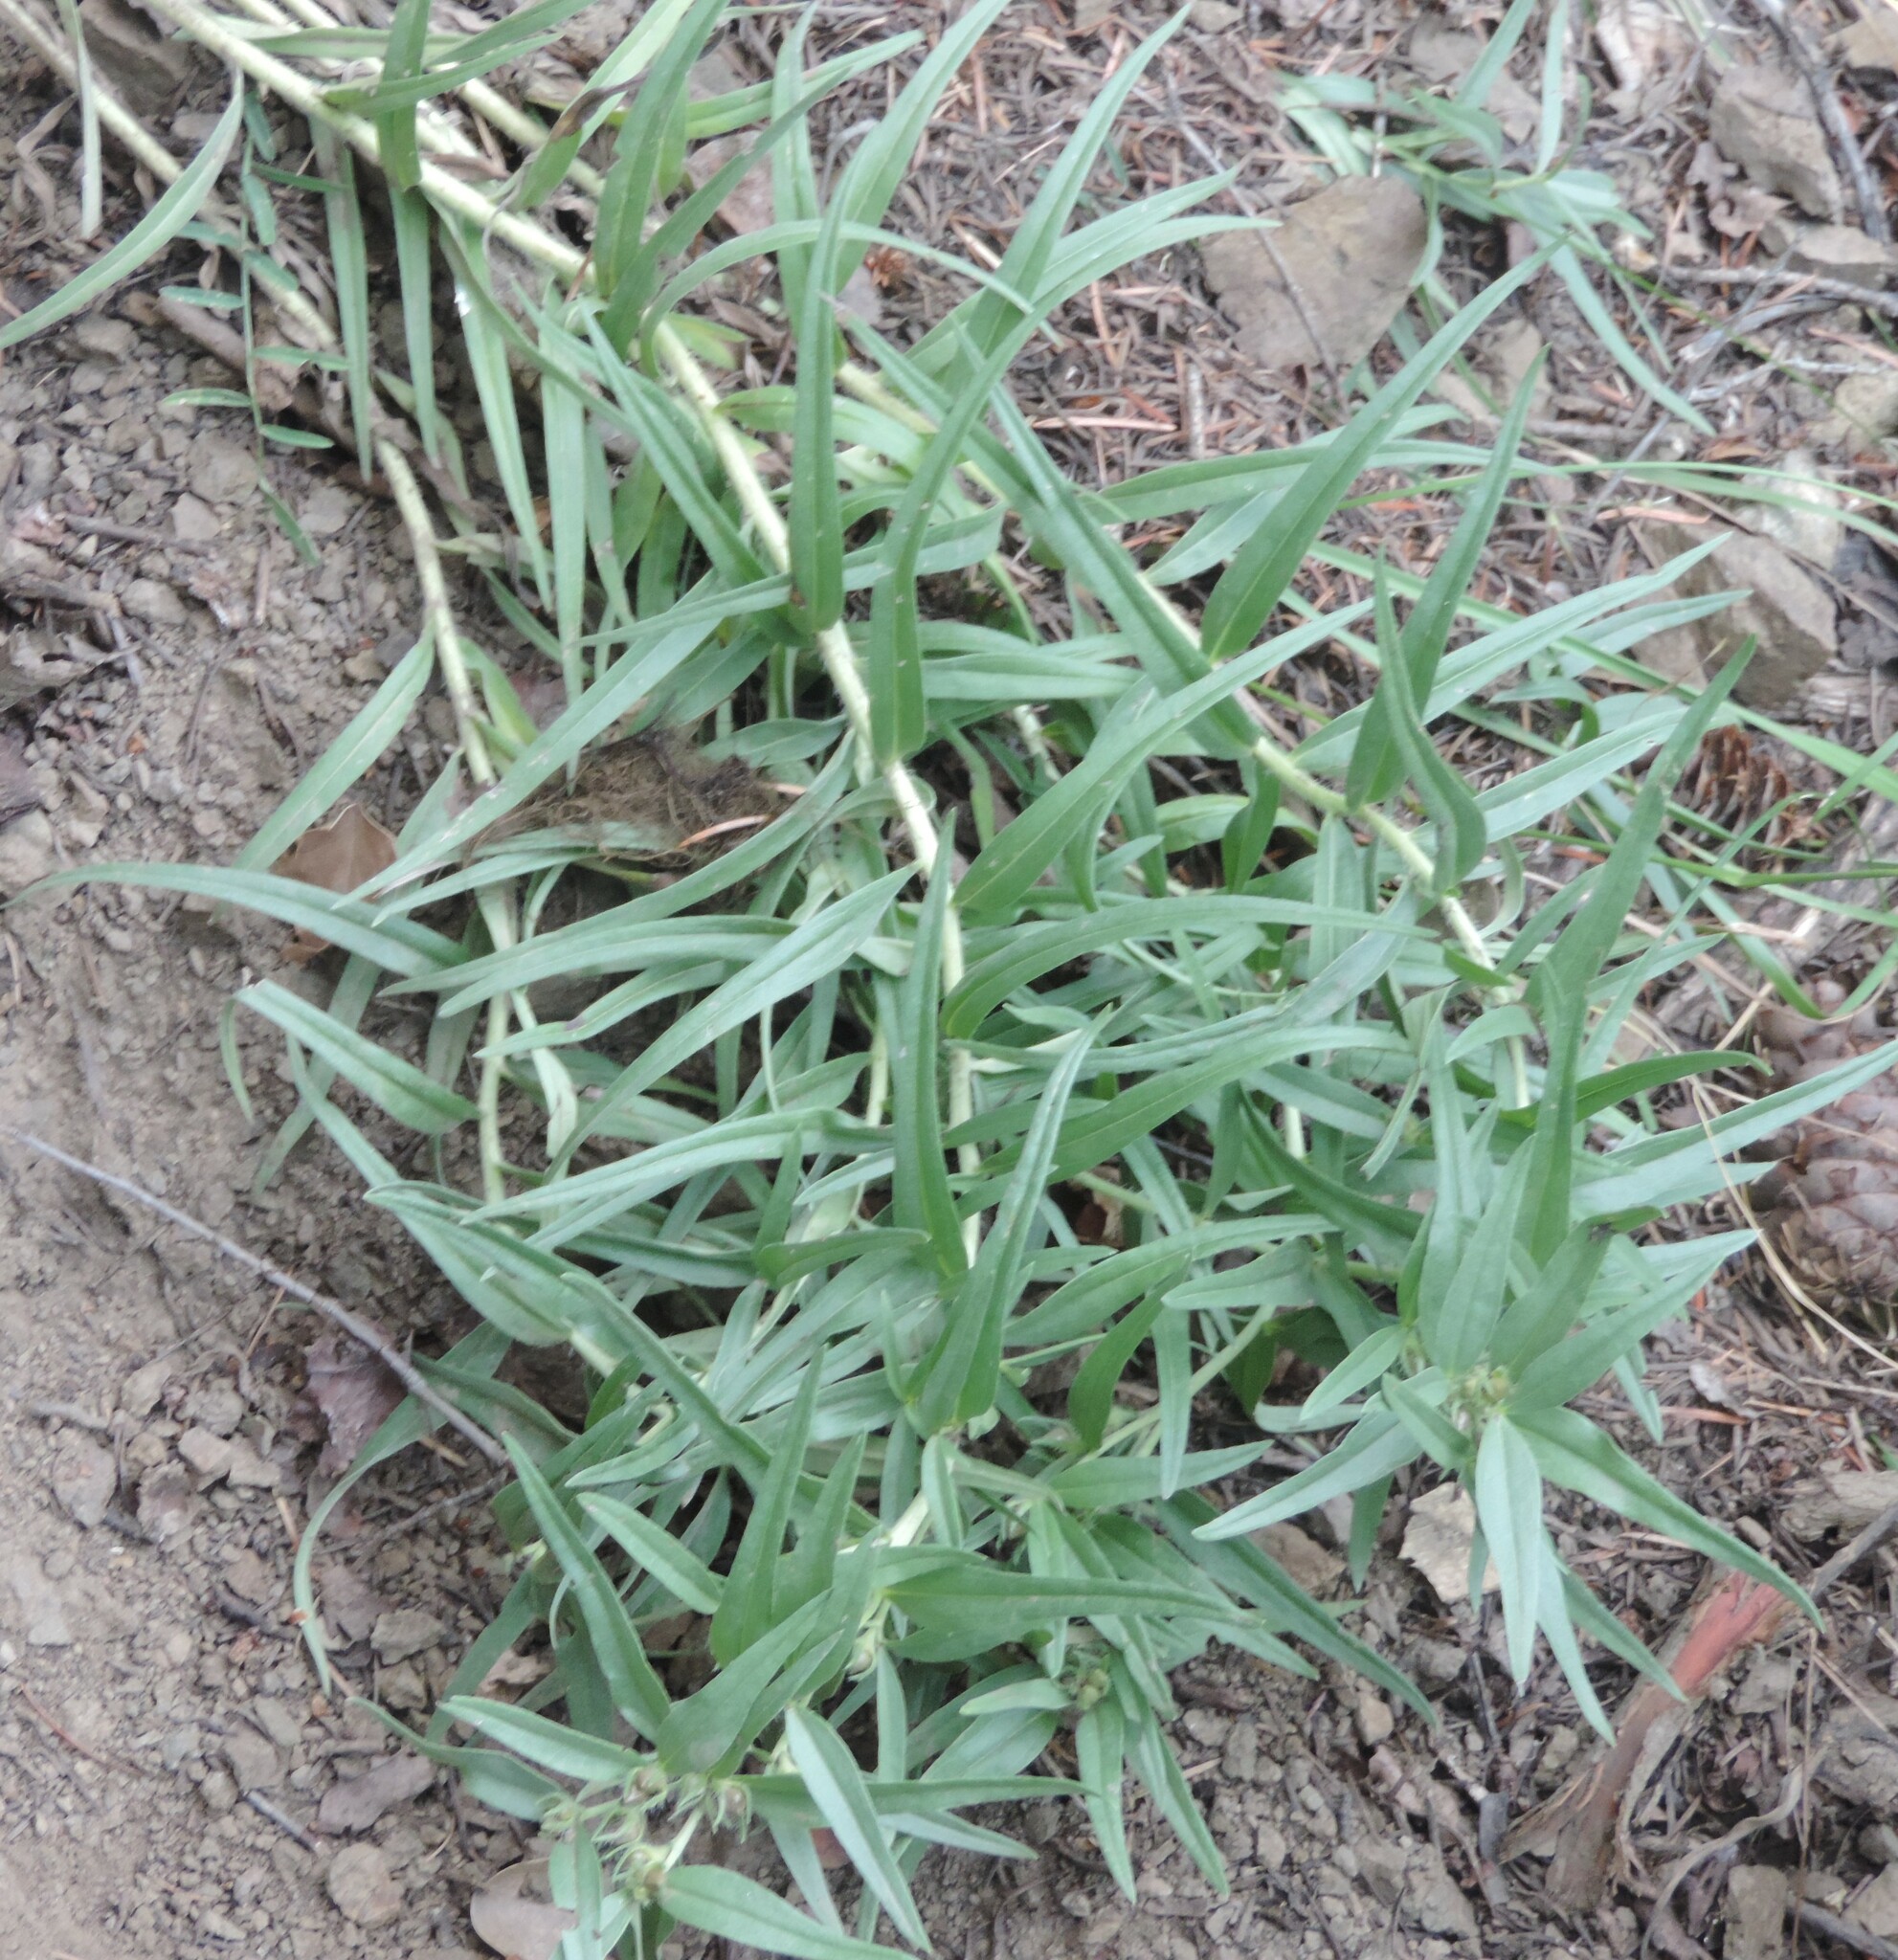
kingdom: Plantae
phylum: Tracheophyta
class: Magnoliopsida
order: Boraginales
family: Boraginaceae
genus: Lithospermum
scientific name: Lithospermum ruderale
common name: Western gromwell
